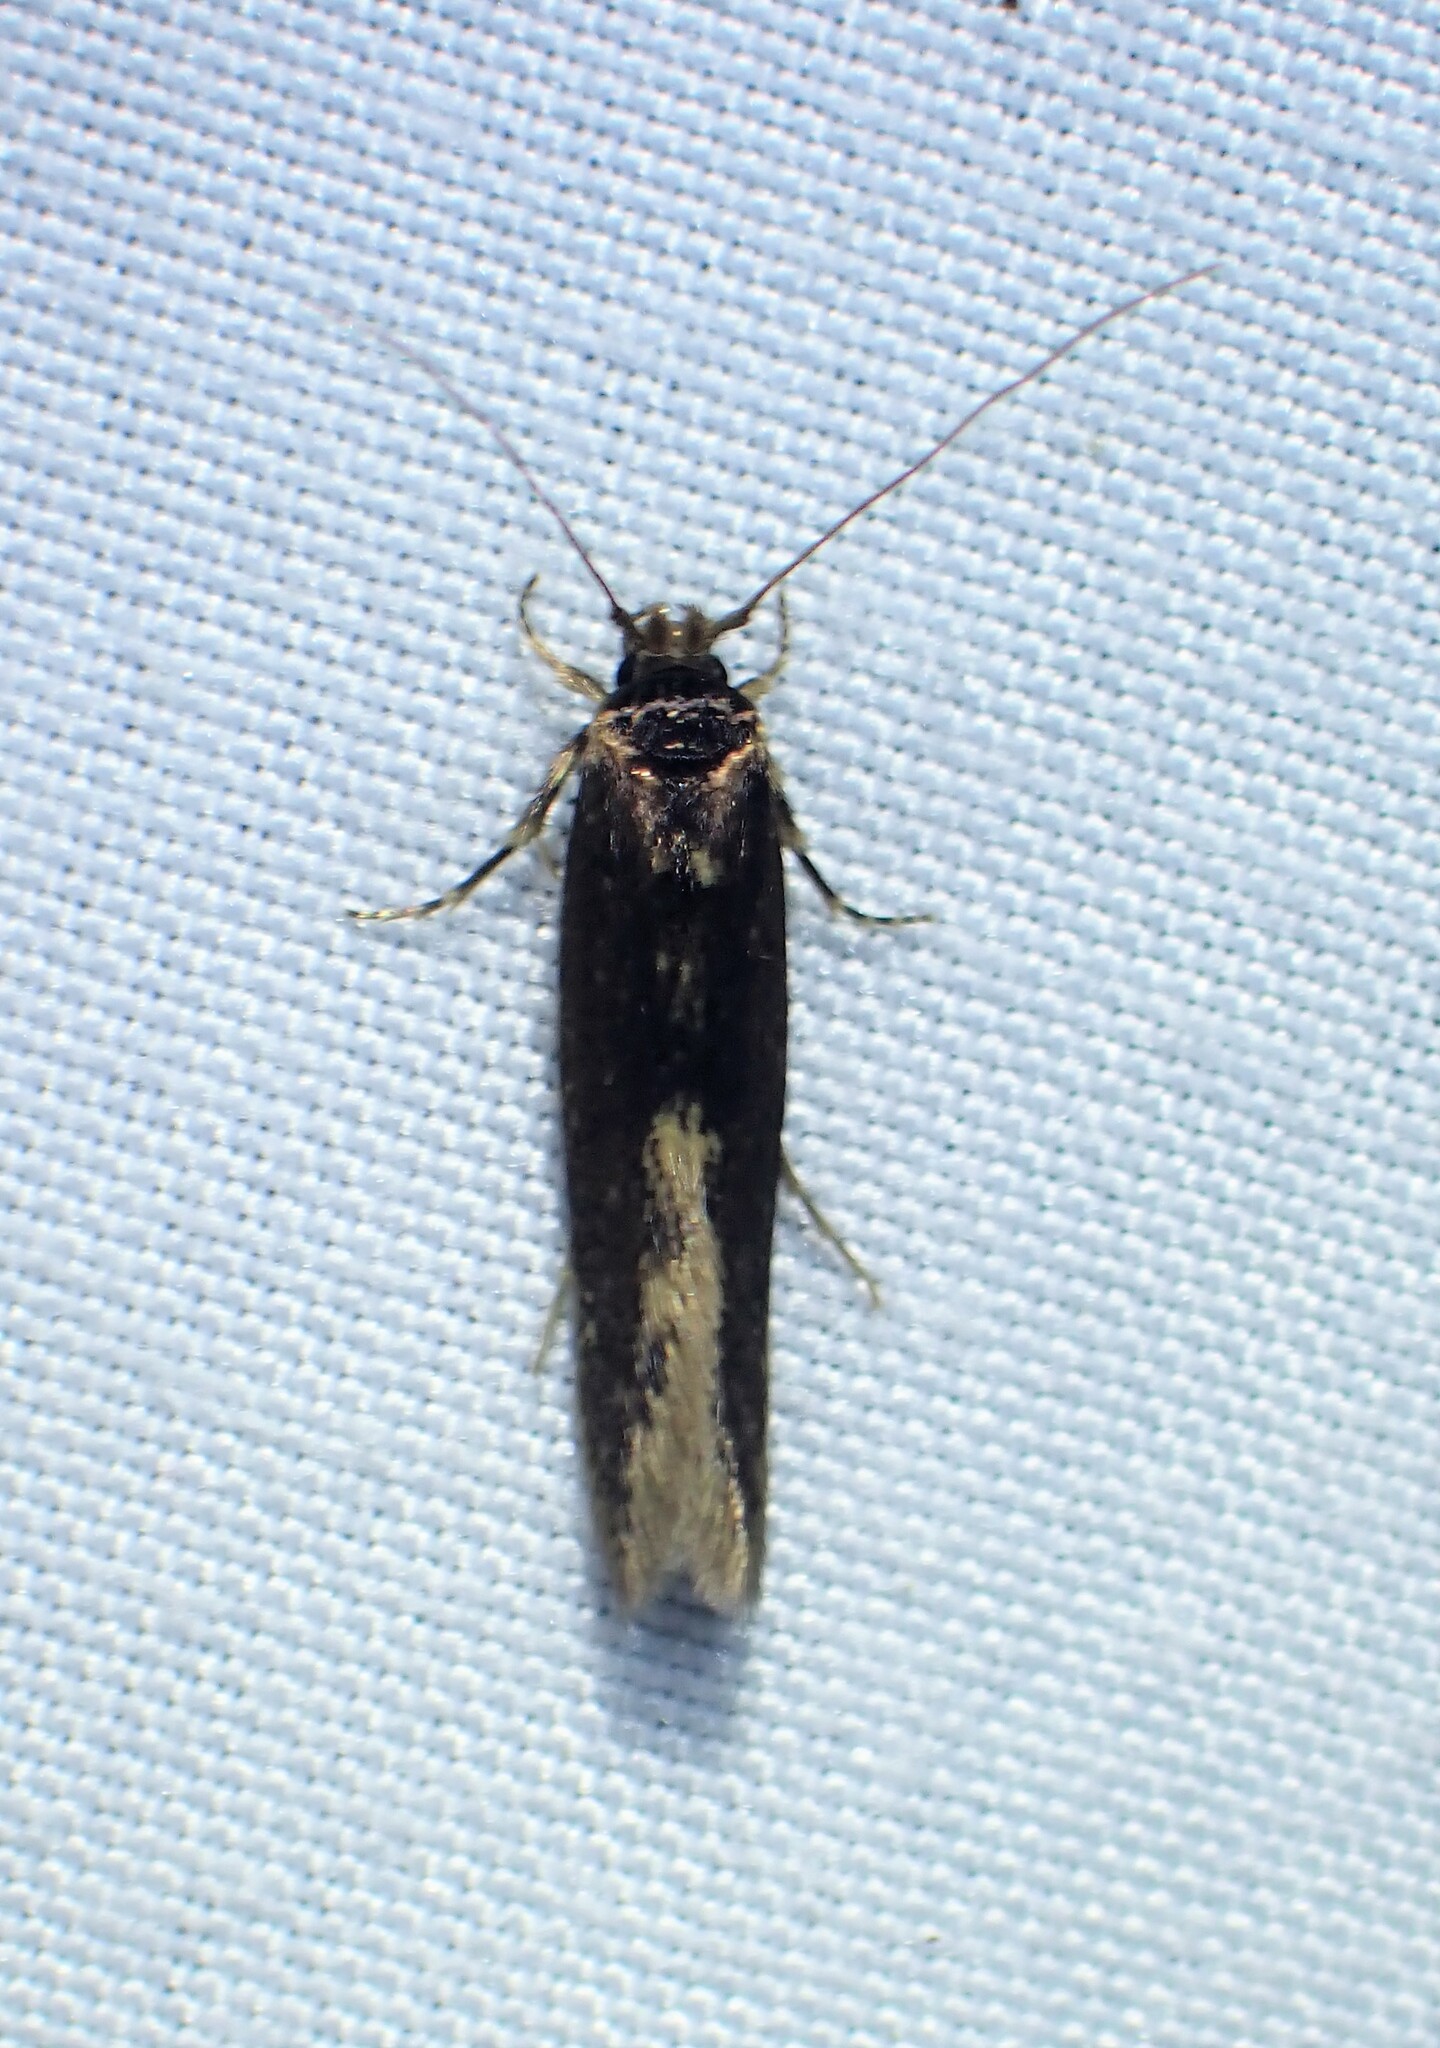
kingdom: Animalia
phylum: Arthropoda
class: Insecta
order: Lepidoptera
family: Tineidae
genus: Opogona
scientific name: Opogona omoscopa
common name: Moth
